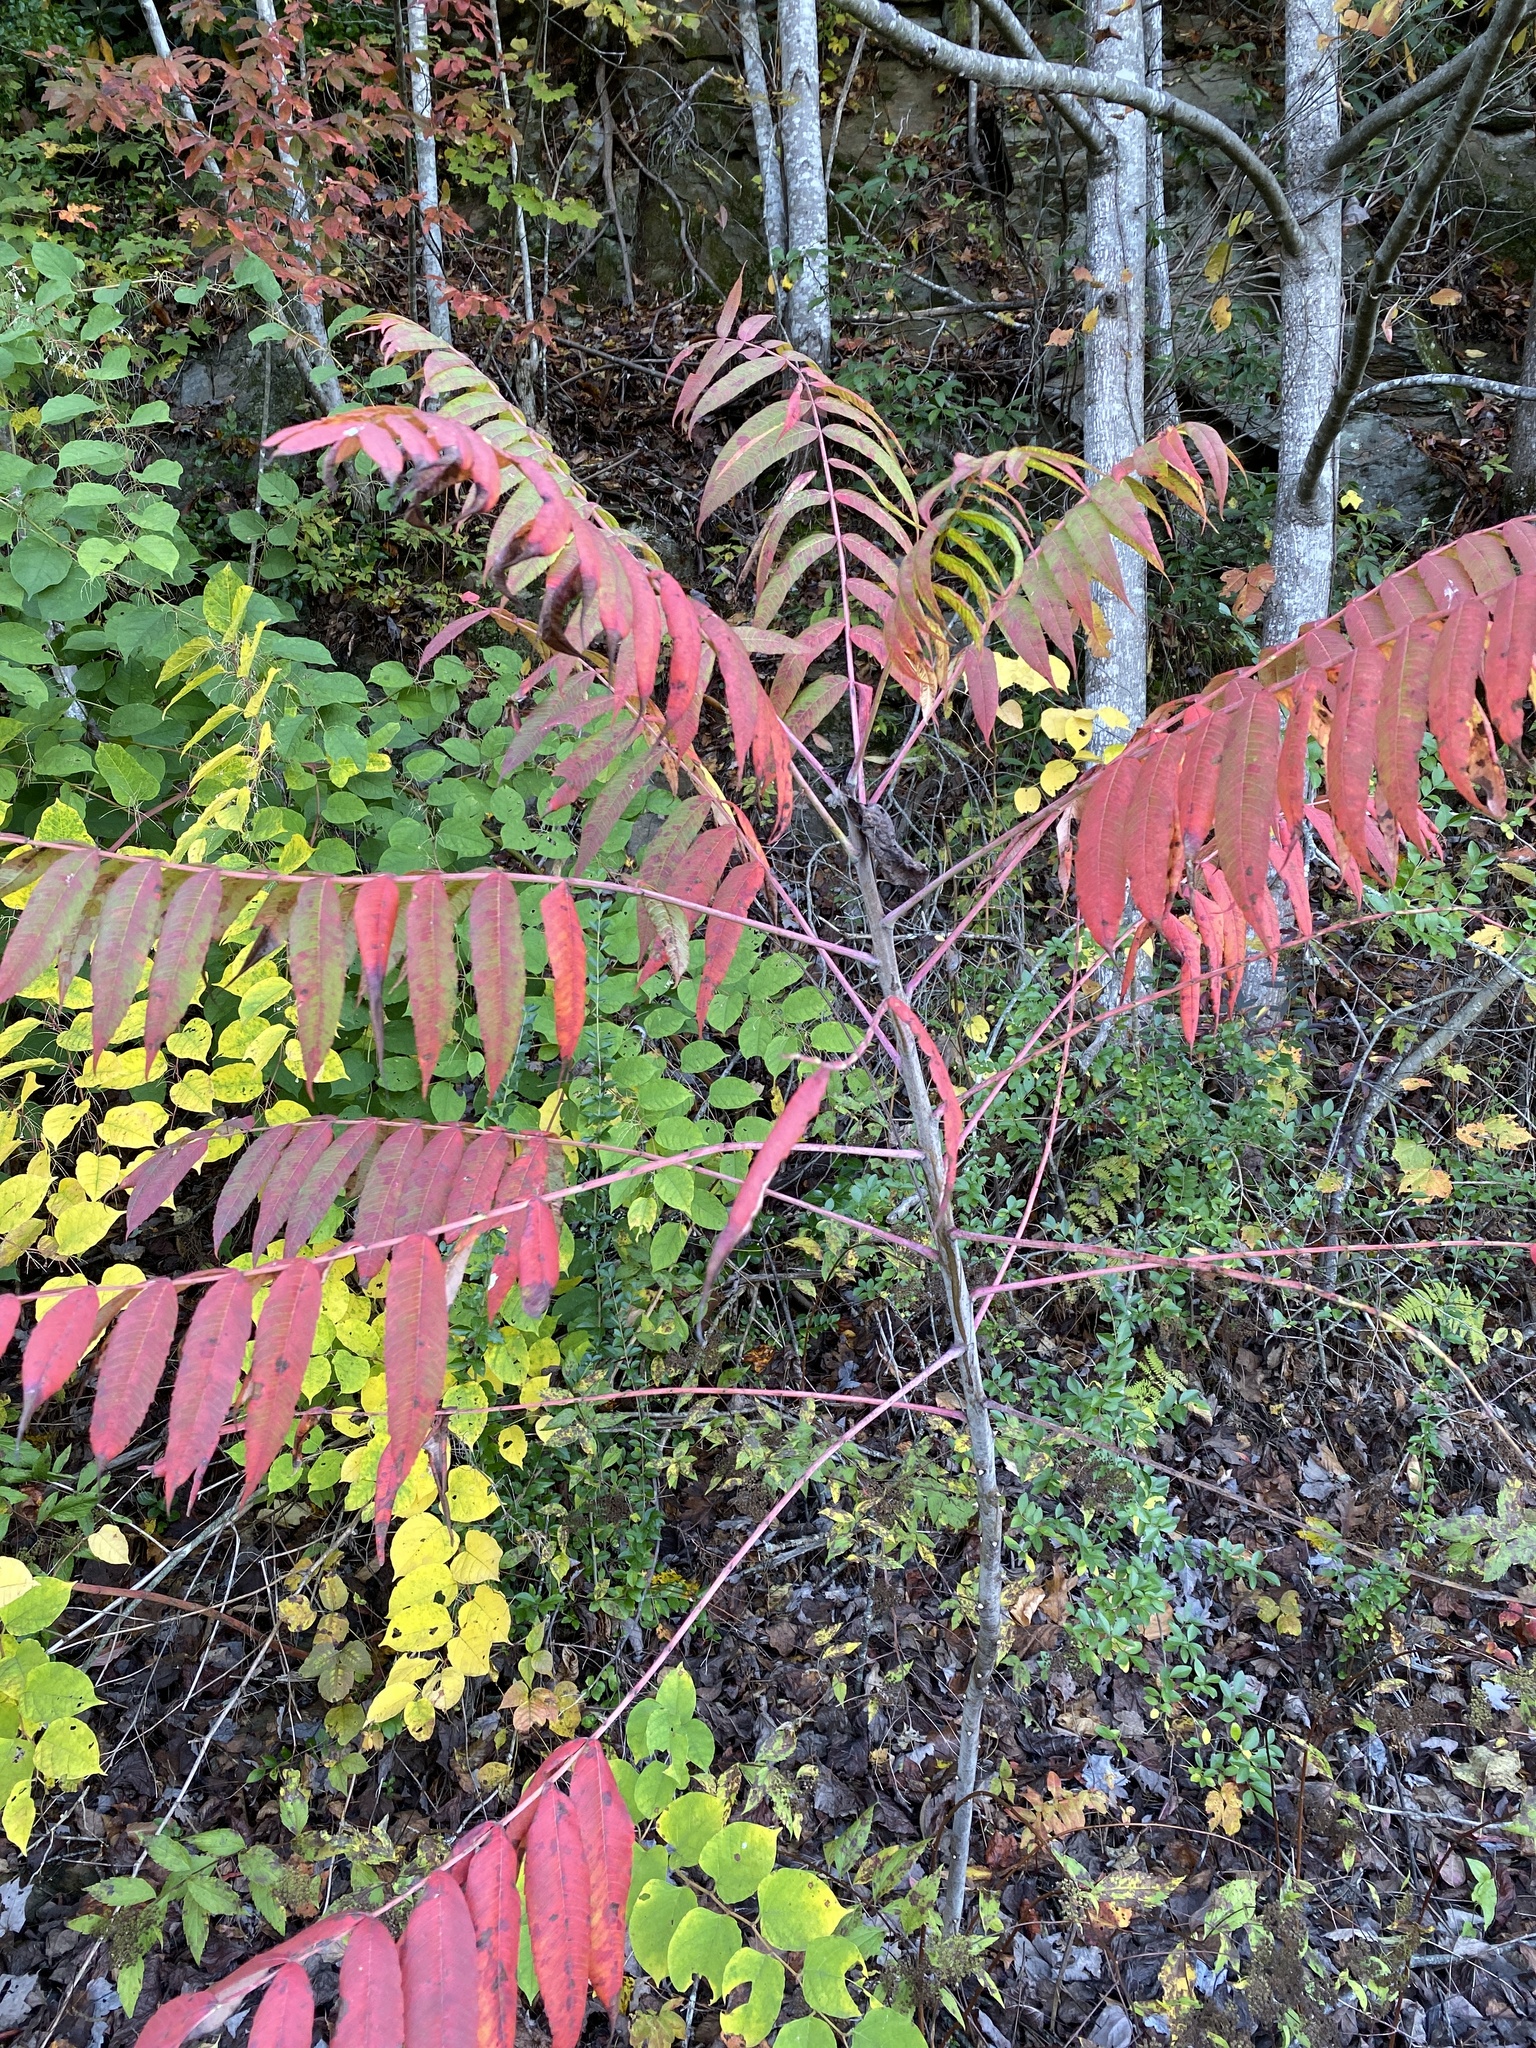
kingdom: Plantae
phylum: Tracheophyta
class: Magnoliopsida
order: Sapindales
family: Anacardiaceae
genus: Rhus
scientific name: Rhus glabra
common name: Scarlet sumac
